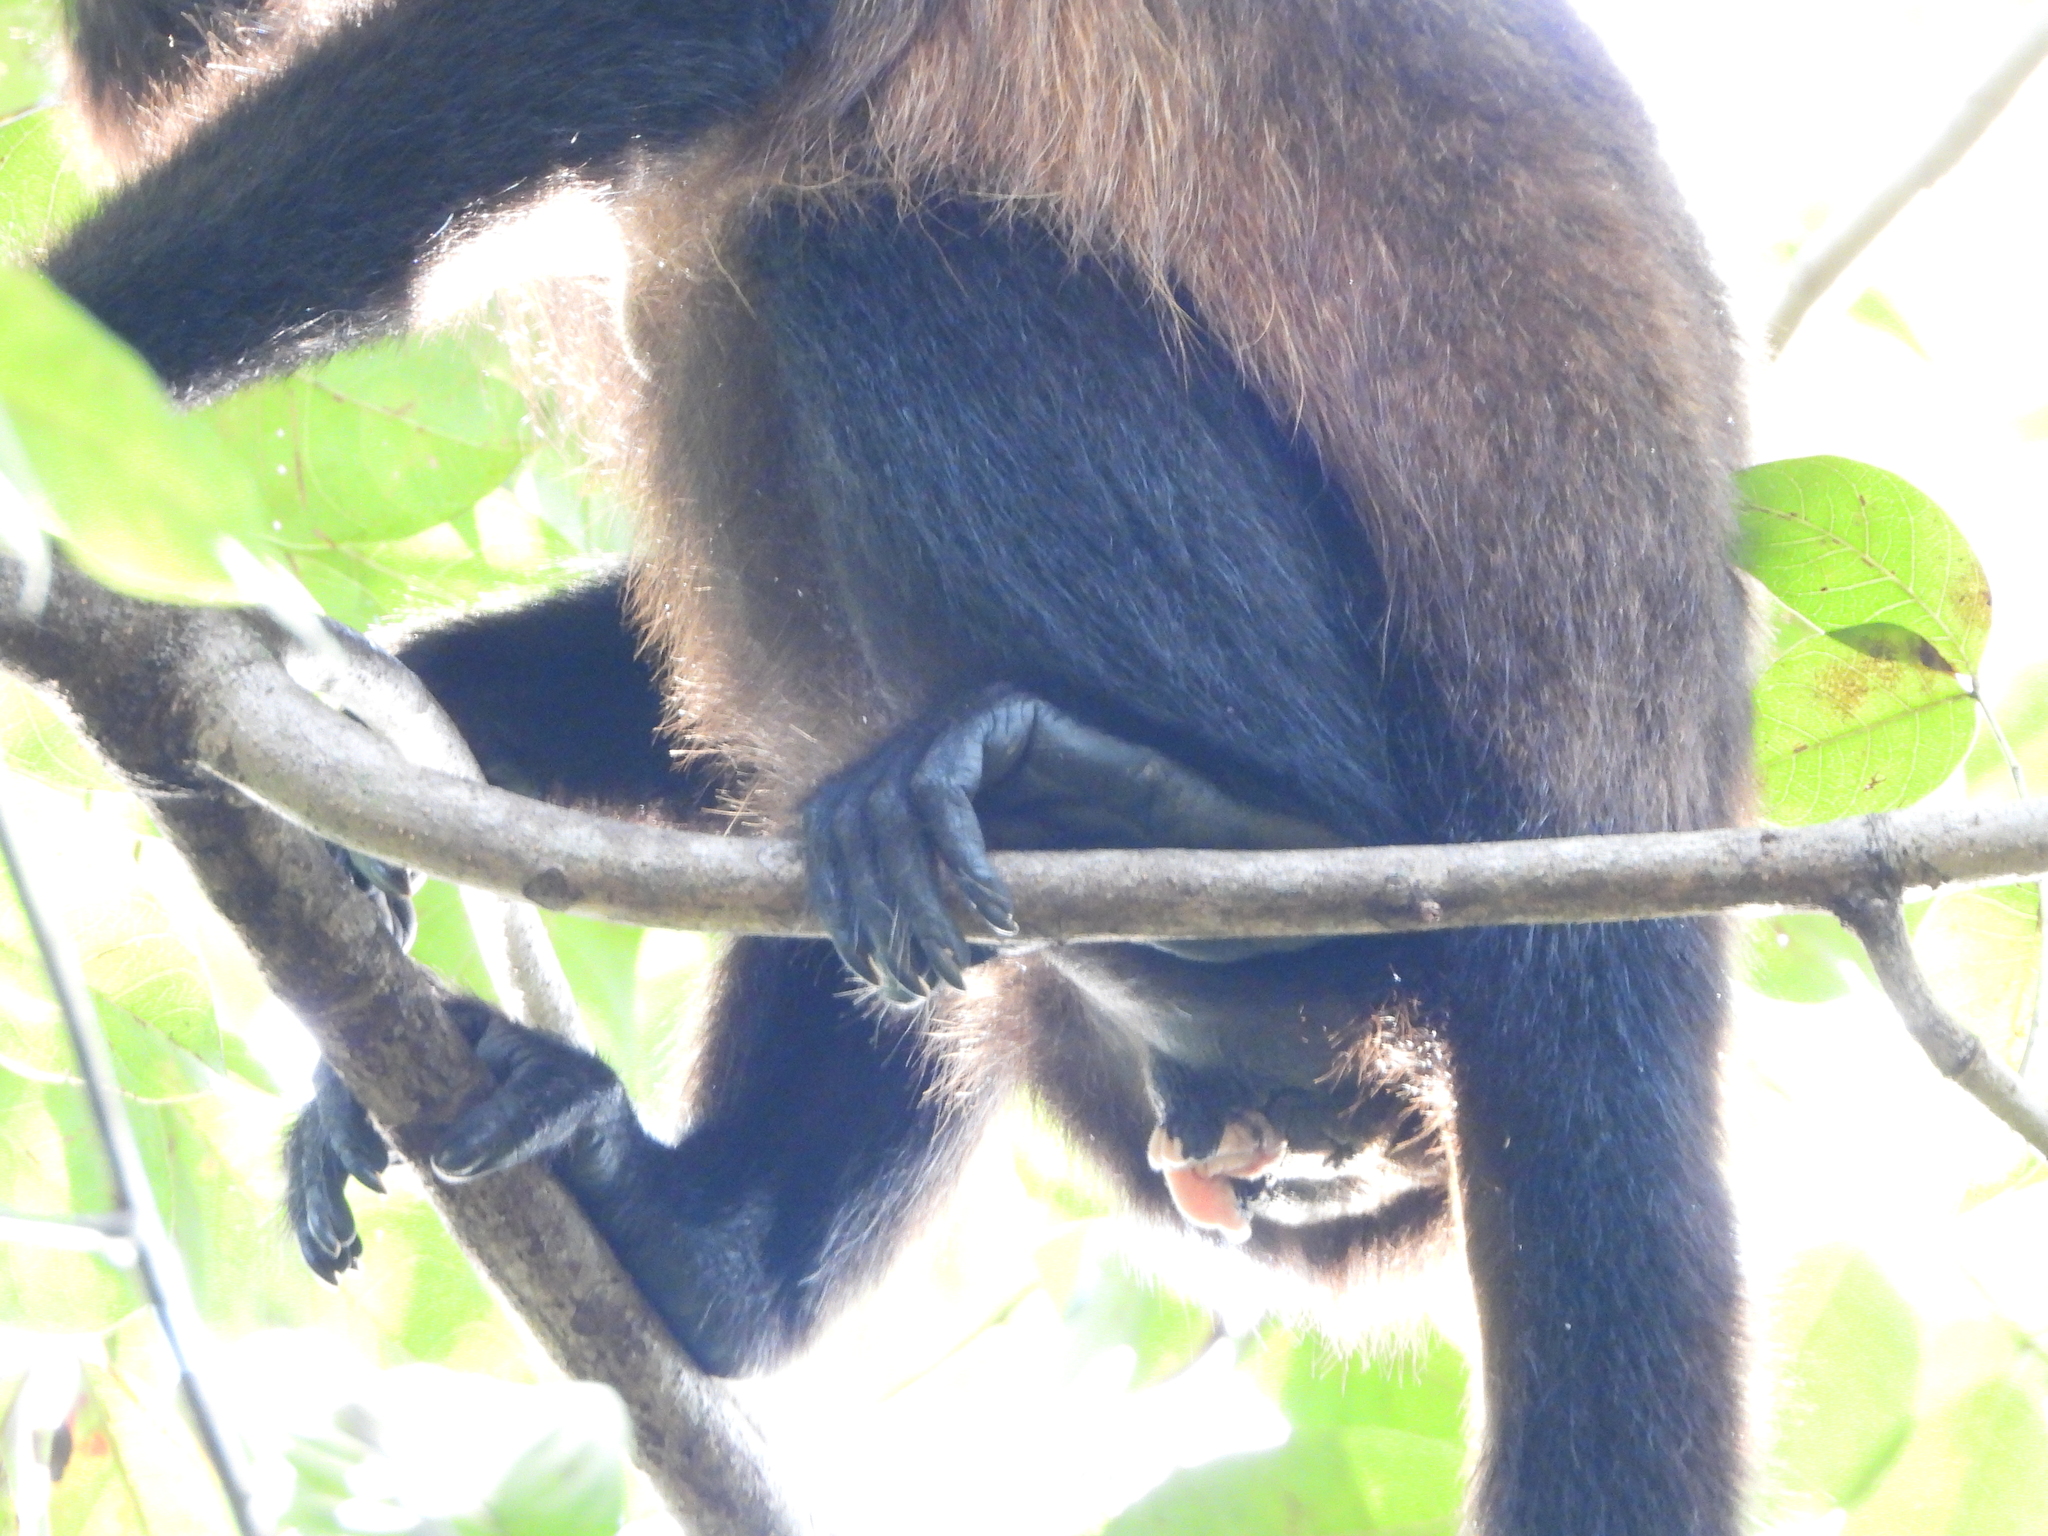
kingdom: Animalia
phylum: Chordata
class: Mammalia
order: Primates
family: Atelidae
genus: Alouatta
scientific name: Alouatta palliata
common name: Mantled howler
